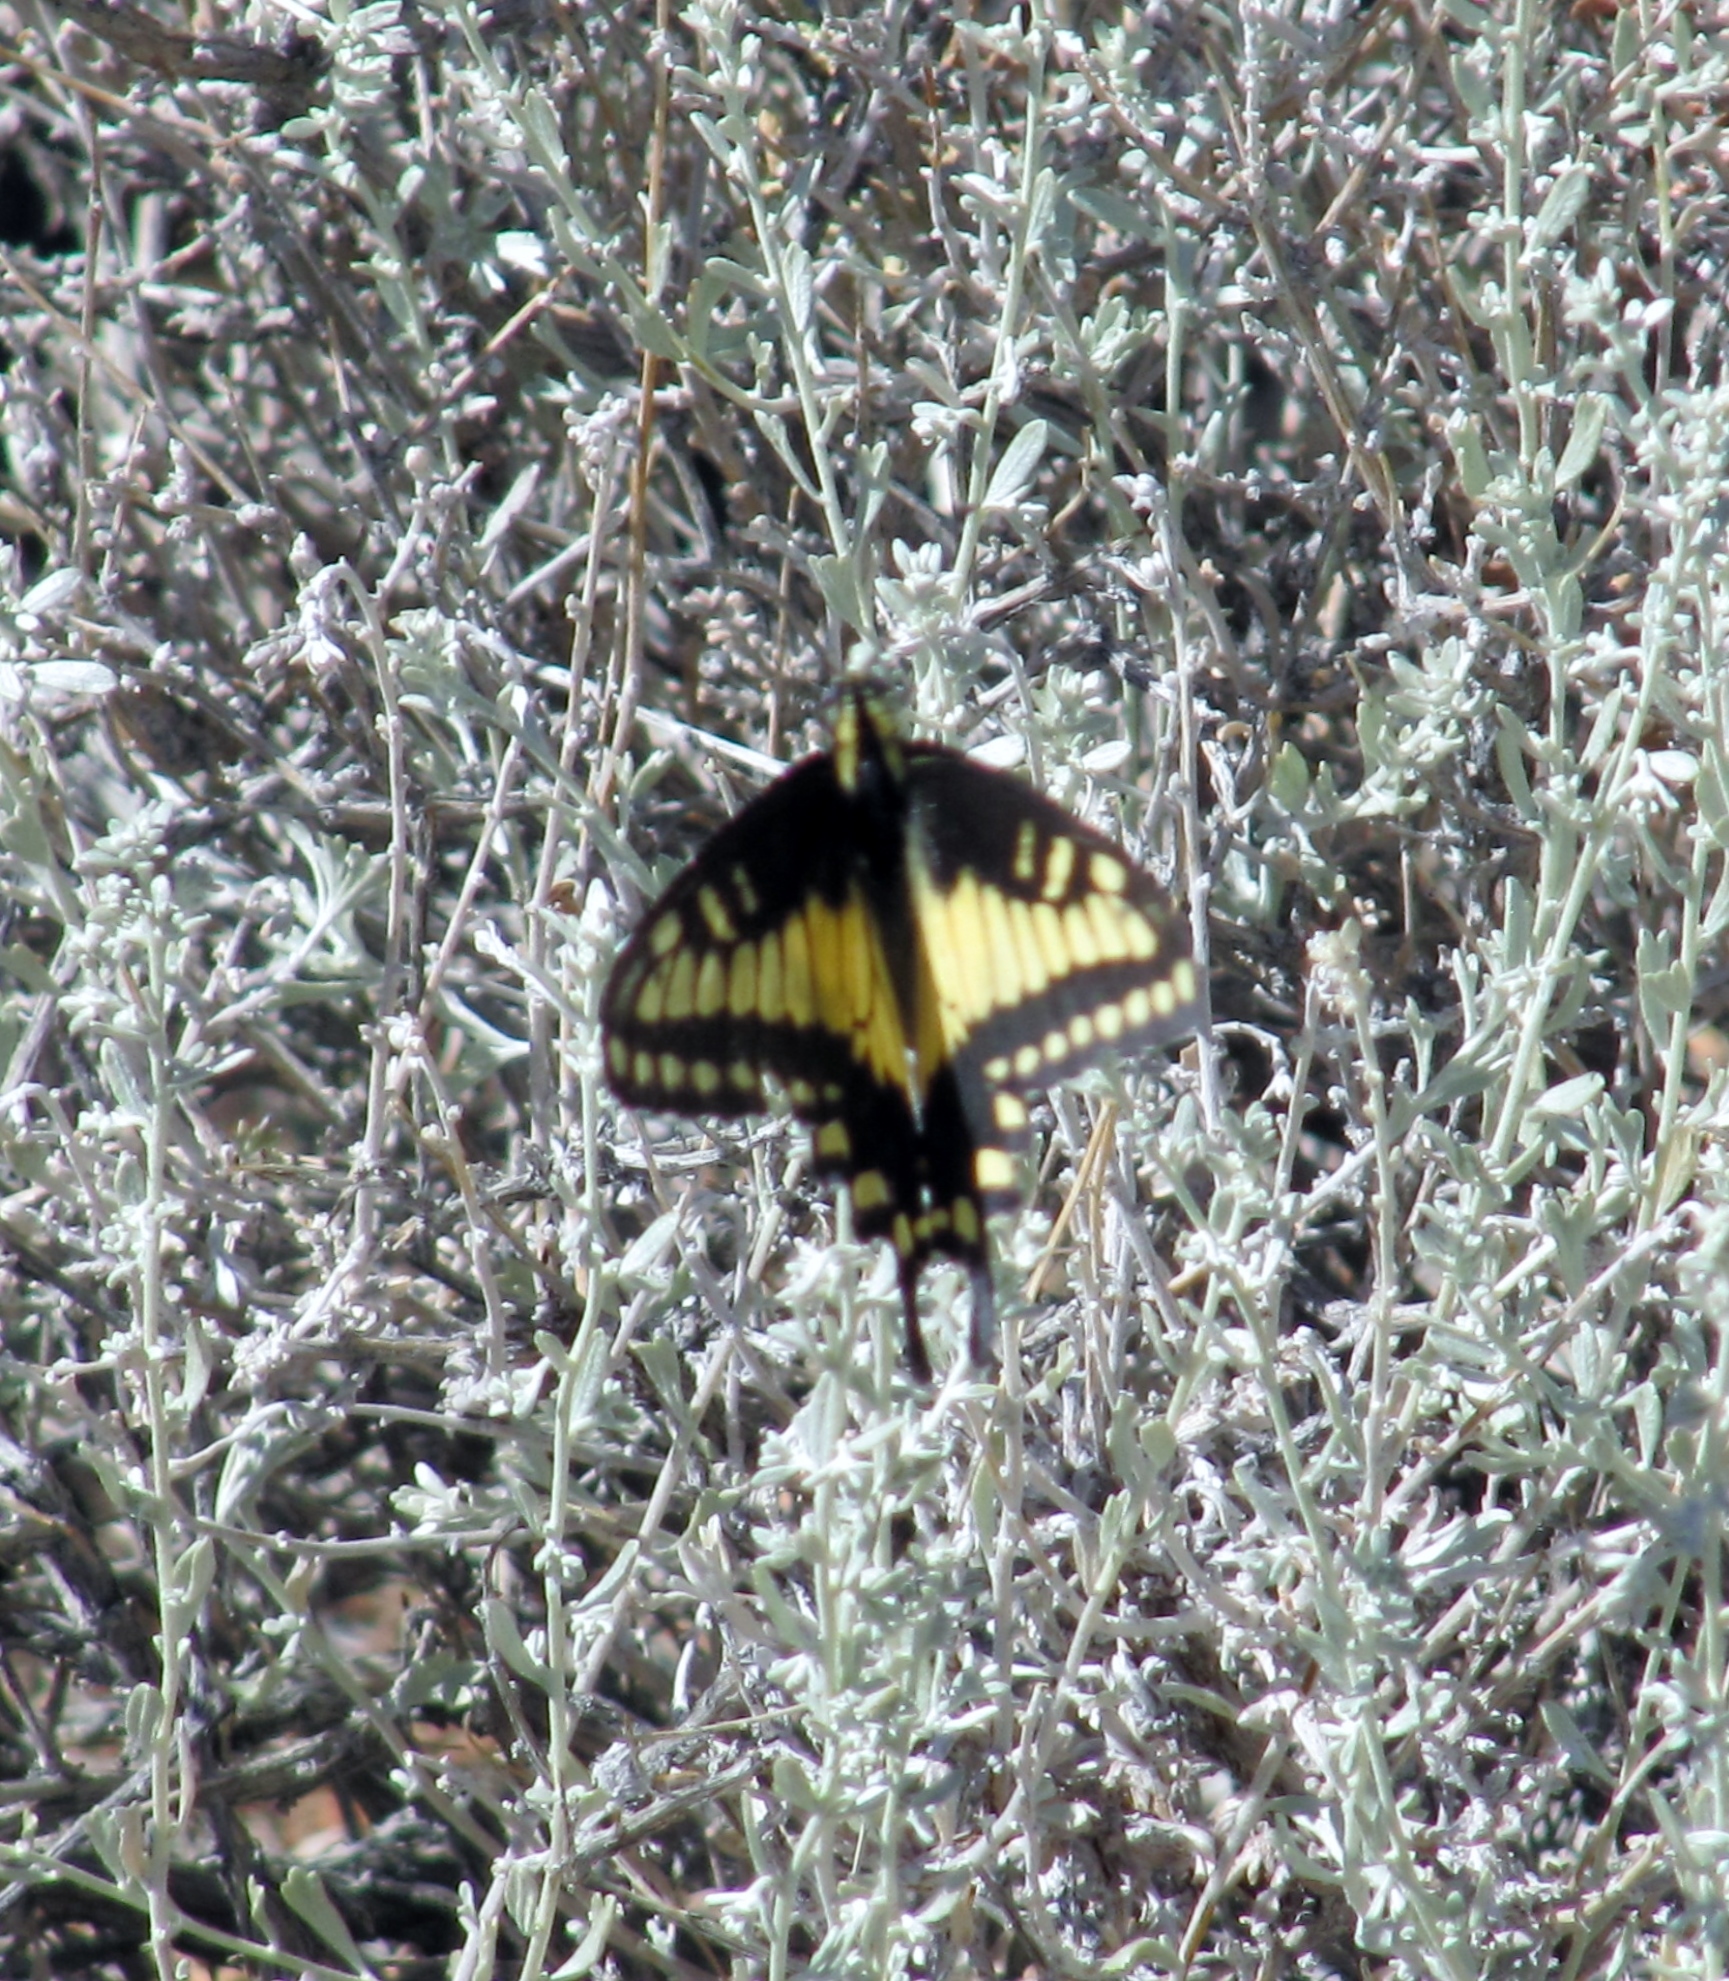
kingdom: Animalia
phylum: Arthropoda
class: Insecta
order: Lepidoptera
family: Papilionidae
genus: Papilio
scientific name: Papilio polyxenes
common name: Black swallowtail
